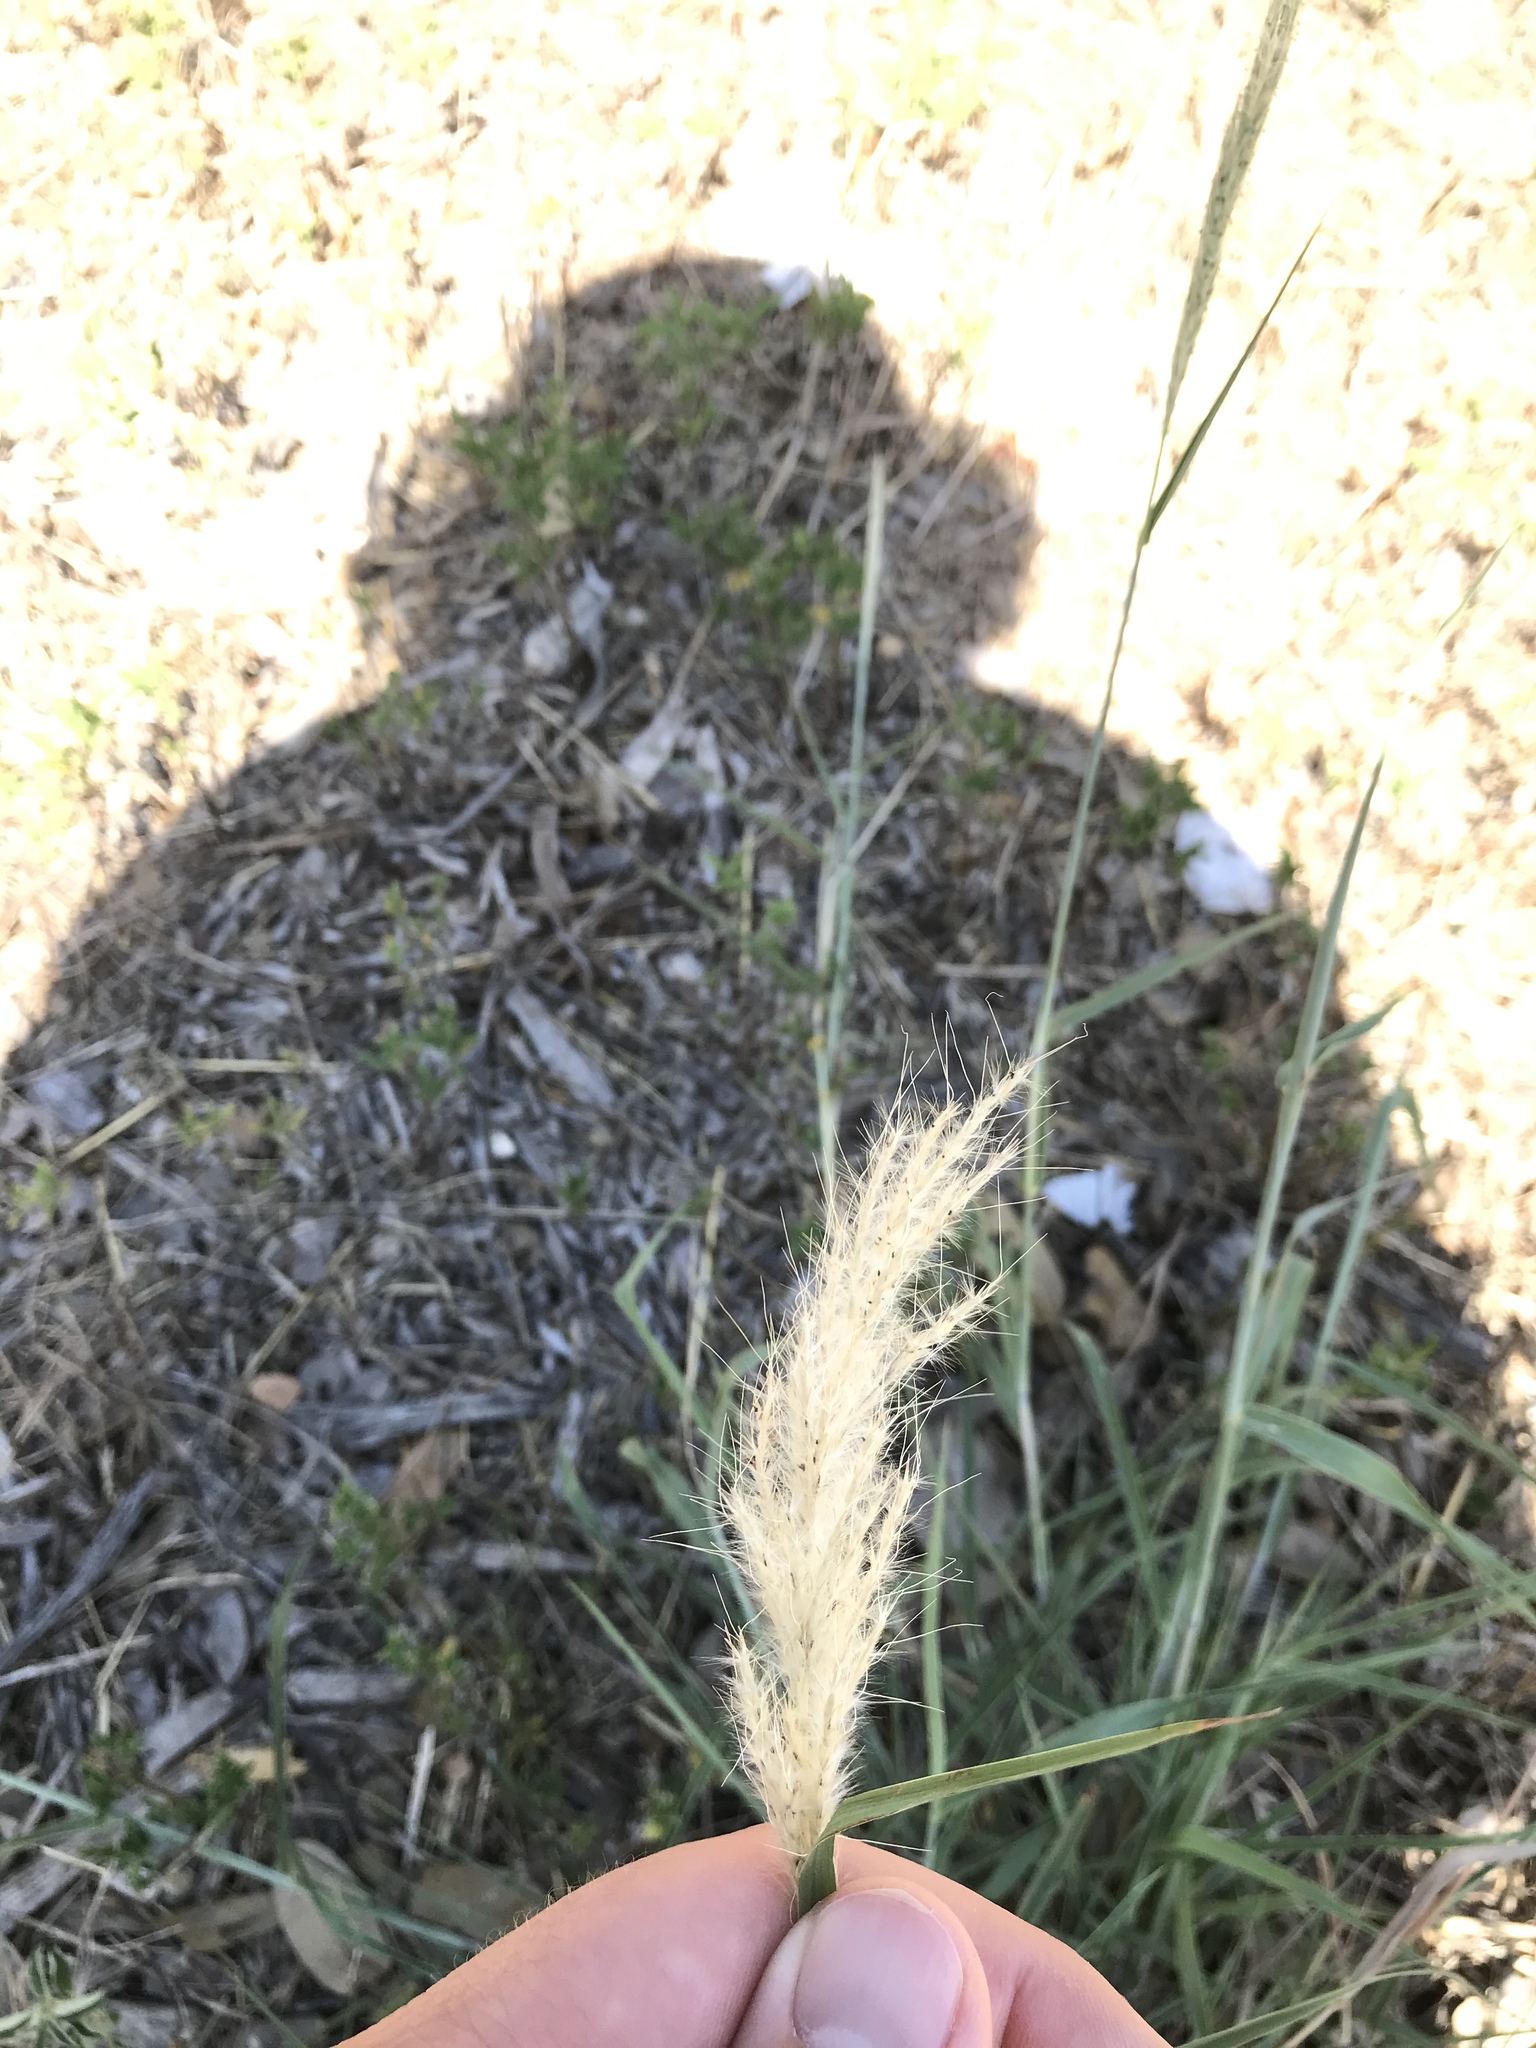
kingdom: Plantae
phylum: Tracheophyta
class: Liliopsida
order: Poales
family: Poaceae
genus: Bothriochloa
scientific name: Bothriochloa torreyana
